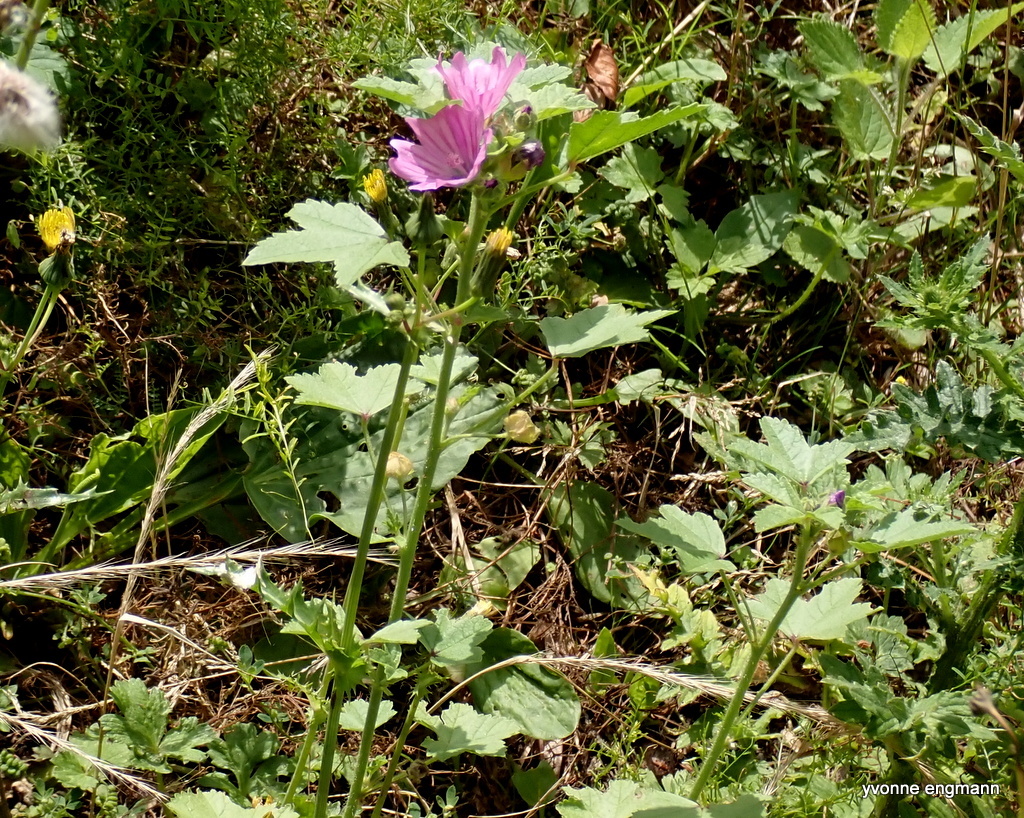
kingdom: Plantae
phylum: Tracheophyta
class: Magnoliopsida
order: Malvales
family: Malvaceae
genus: Malva
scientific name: Malva sylvestris
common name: Common mallow
